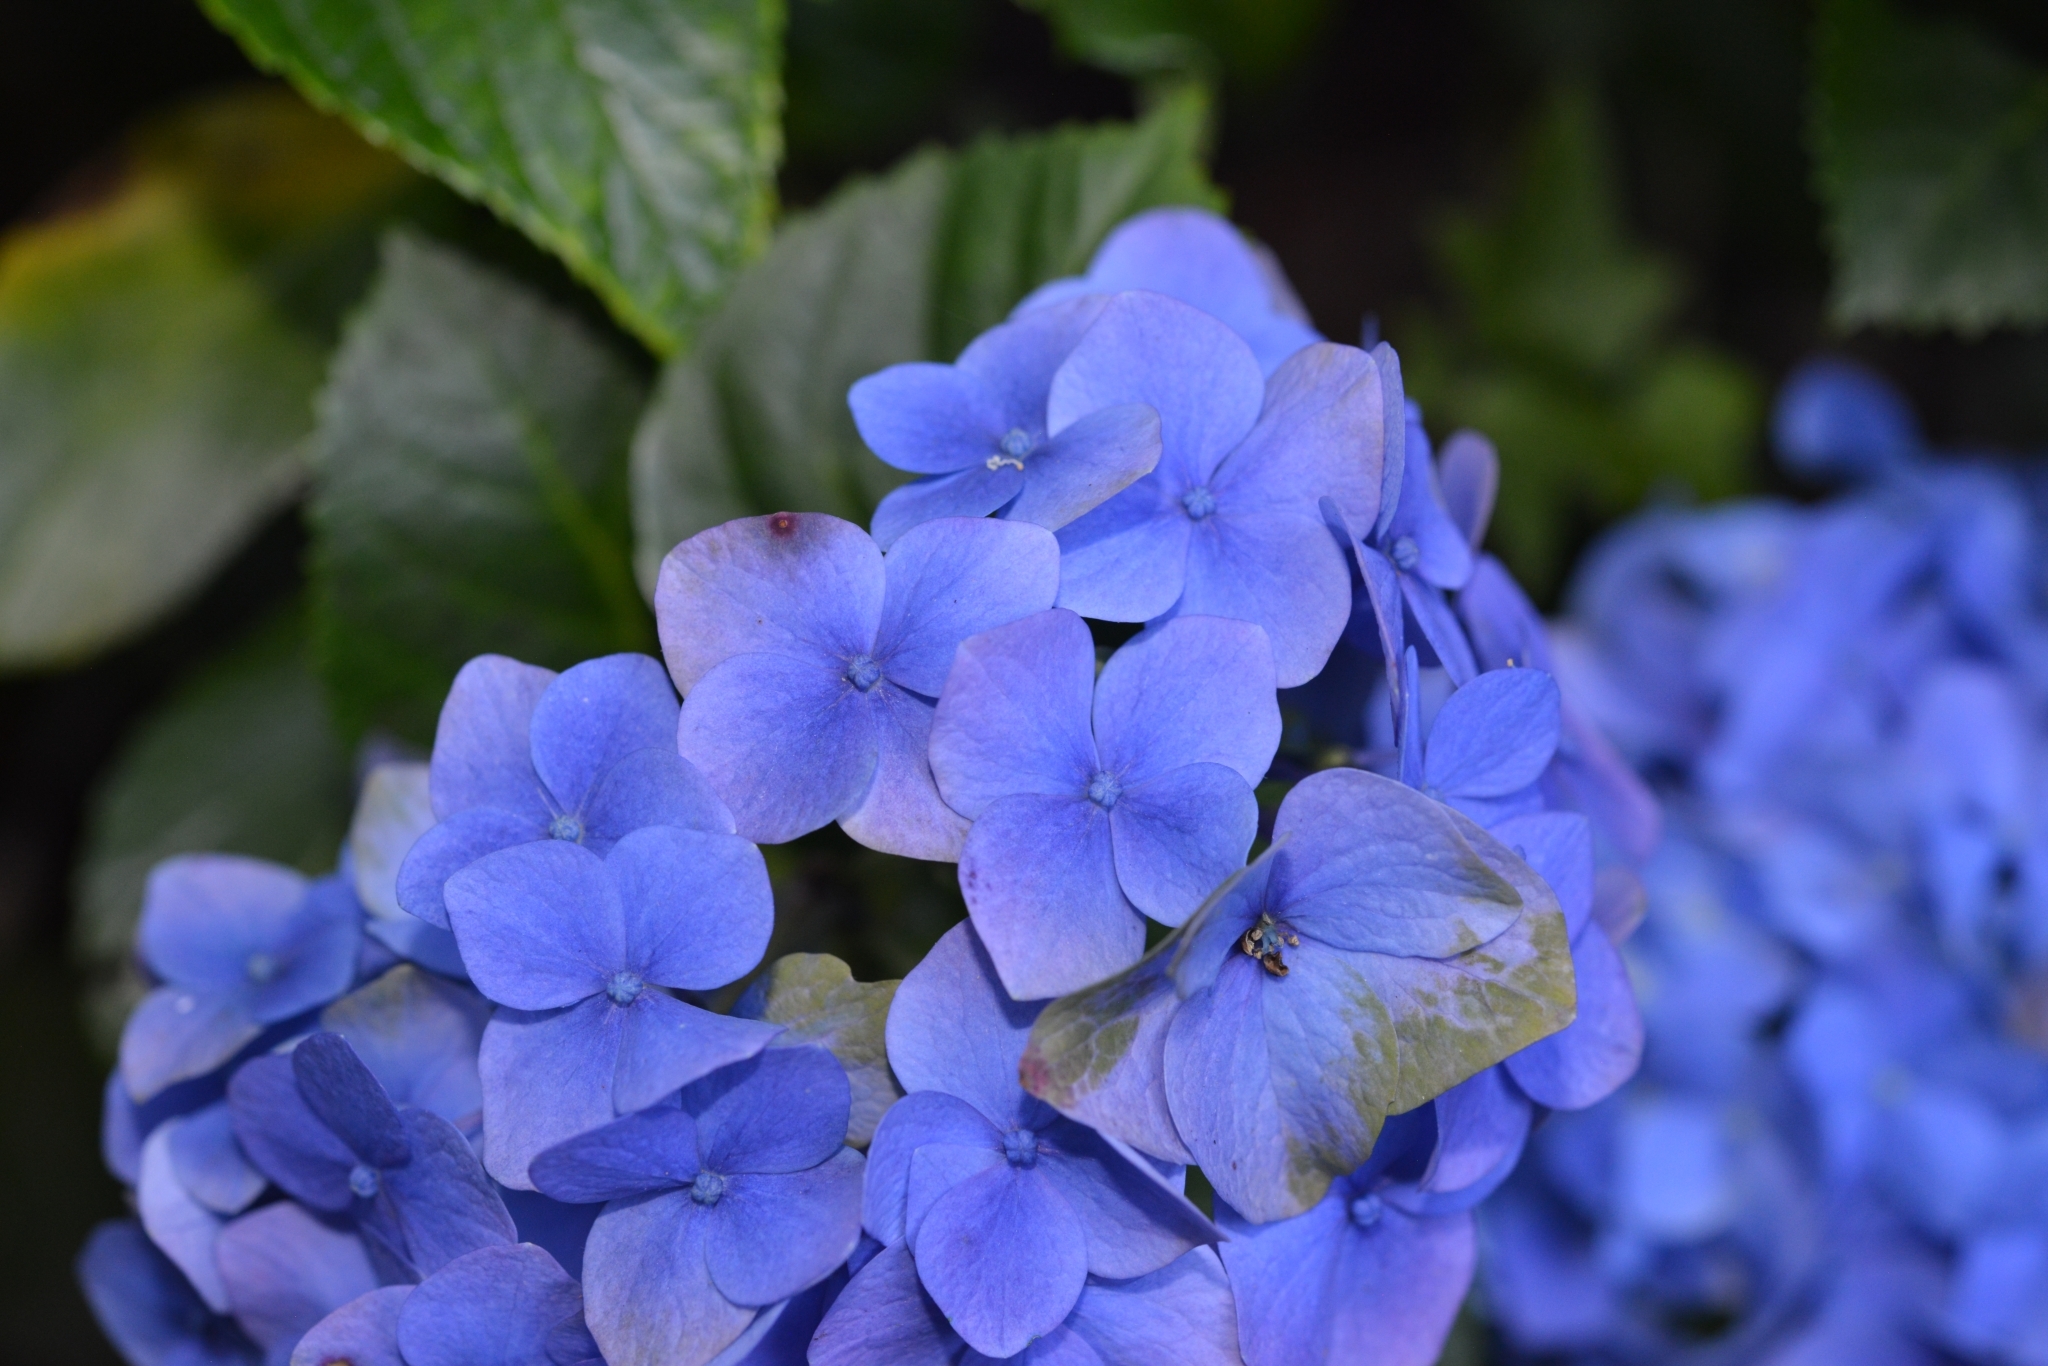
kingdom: Plantae
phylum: Tracheophyta
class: Magnoliopsida
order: Cornales
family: Hydrangeaceae
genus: Hydrangea
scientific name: Hydrangea macrophylla
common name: Hydrangea
